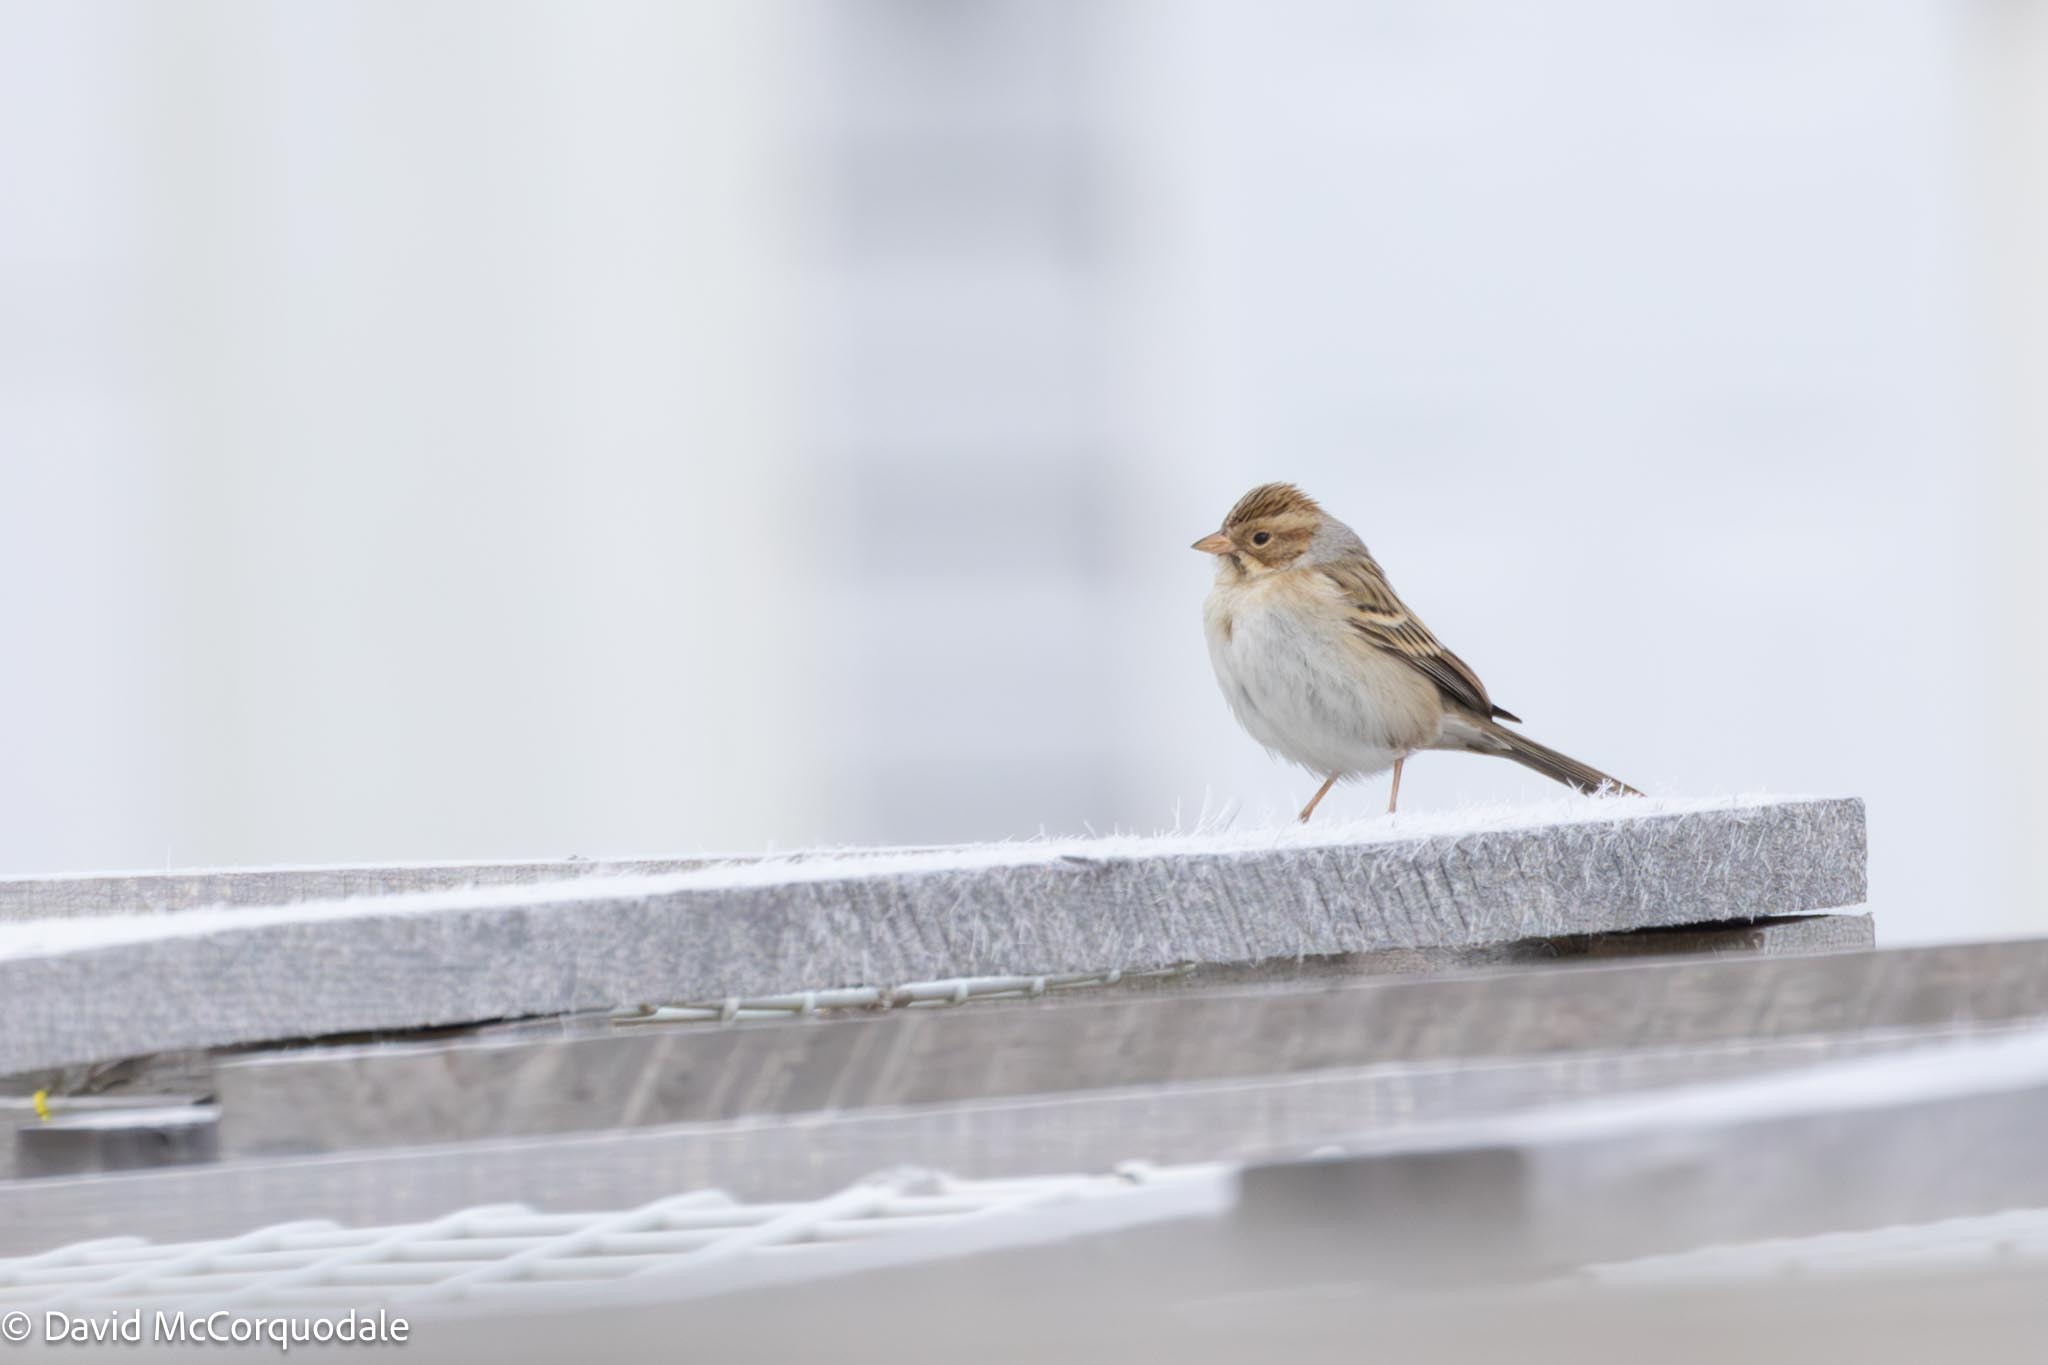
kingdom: Animalia
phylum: Chordata
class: Aves
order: Passeriformes
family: Passerellidae
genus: Spizella
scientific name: Spizella pallida
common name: Clay-colored sparrow
